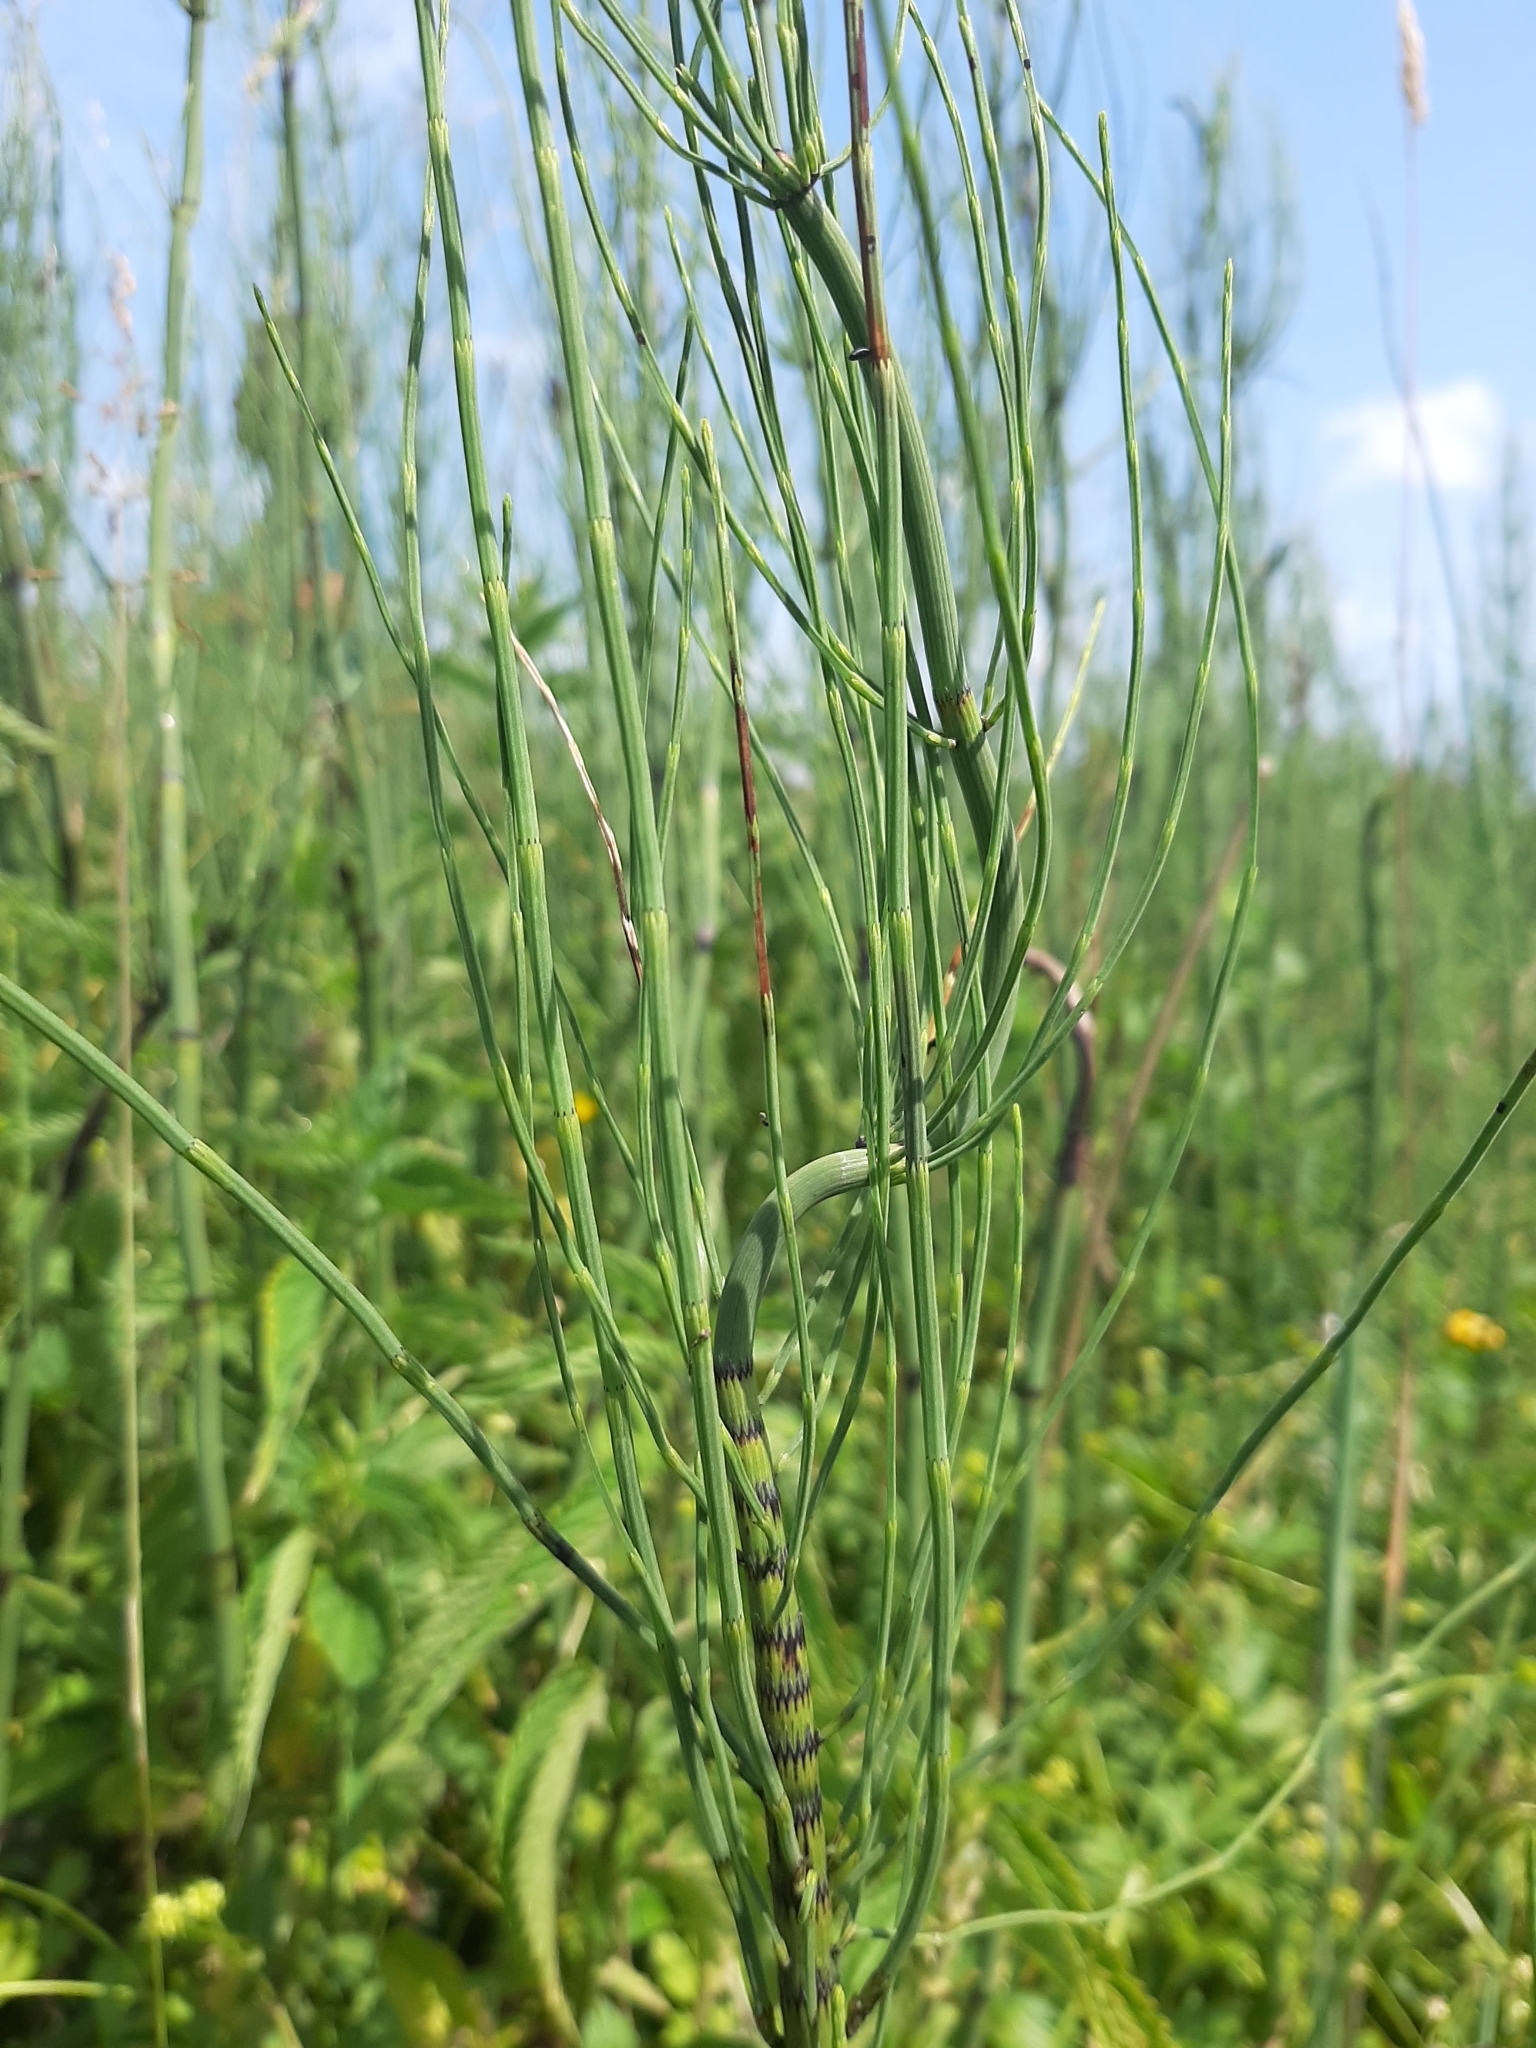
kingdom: Plantae
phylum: Tracheophyta
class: Polypodiopsida
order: Equisetales
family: Equisetaceae
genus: Equisetum
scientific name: Equisetum fluviatile
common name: Water horsetail
